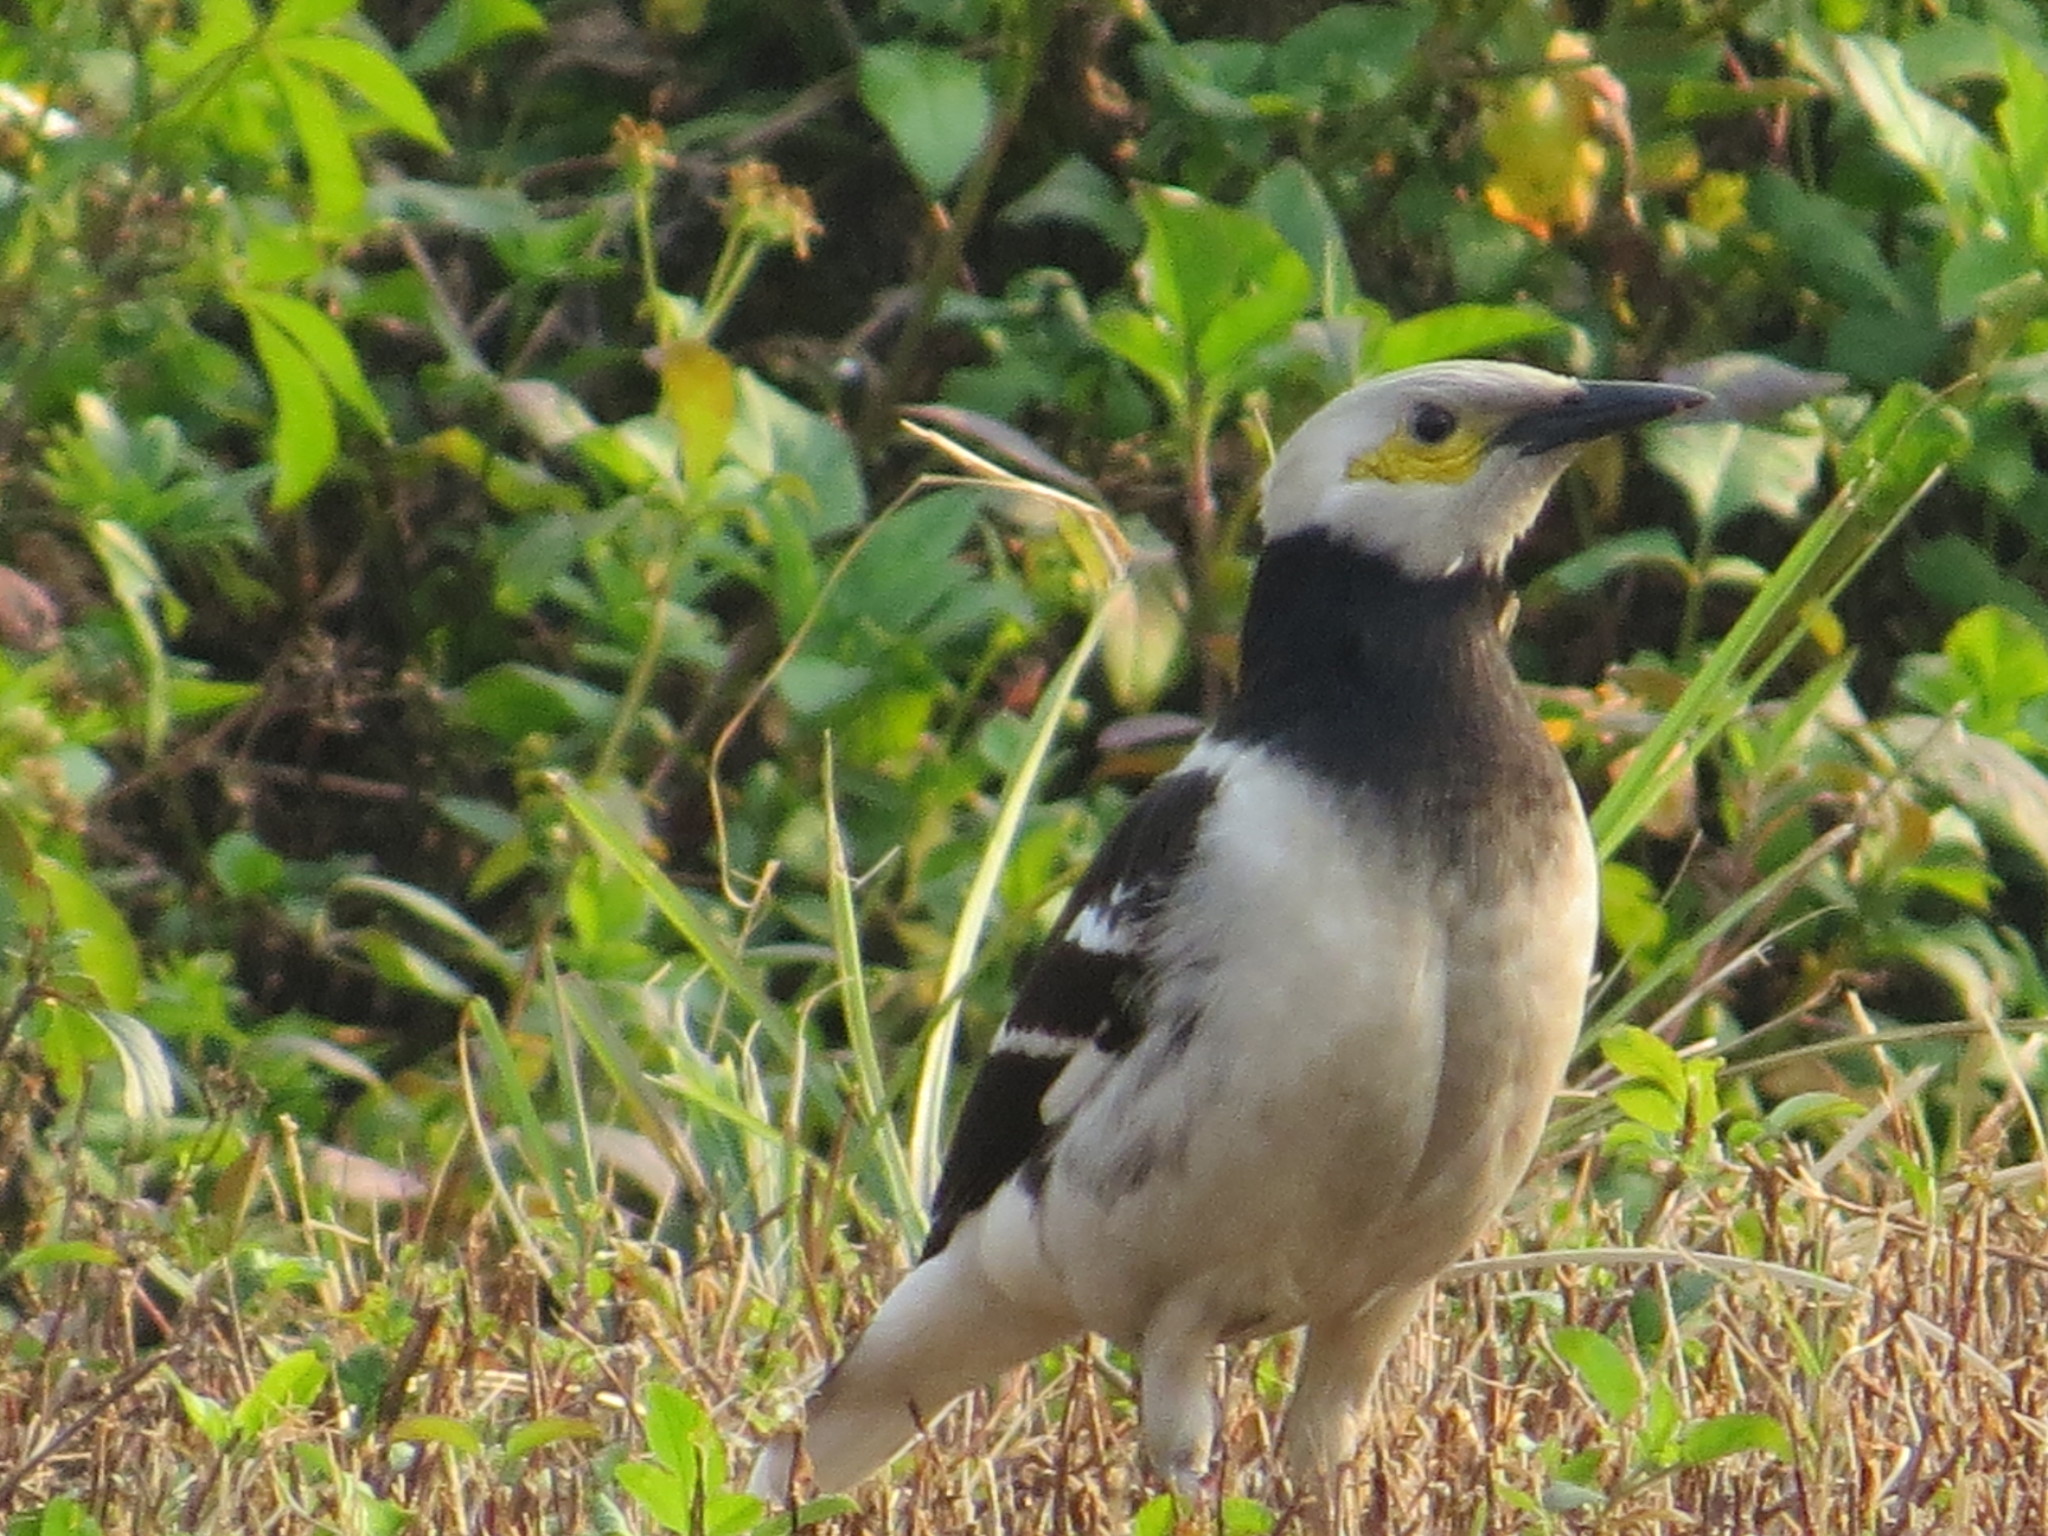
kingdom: Animalia
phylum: Chordata
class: Aves
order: Passeriformes
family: Sturnidae
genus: Gracupica
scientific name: Gracupica nigricollis
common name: Black-collared starling
